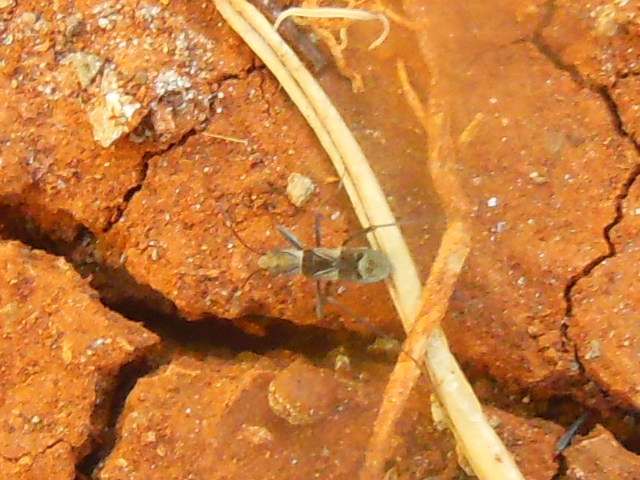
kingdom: Animalia
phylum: Arthropoda
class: Insecta
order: Hemiptera
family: Rhyparochromidae
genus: Poeantius
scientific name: Poeantius festivus
